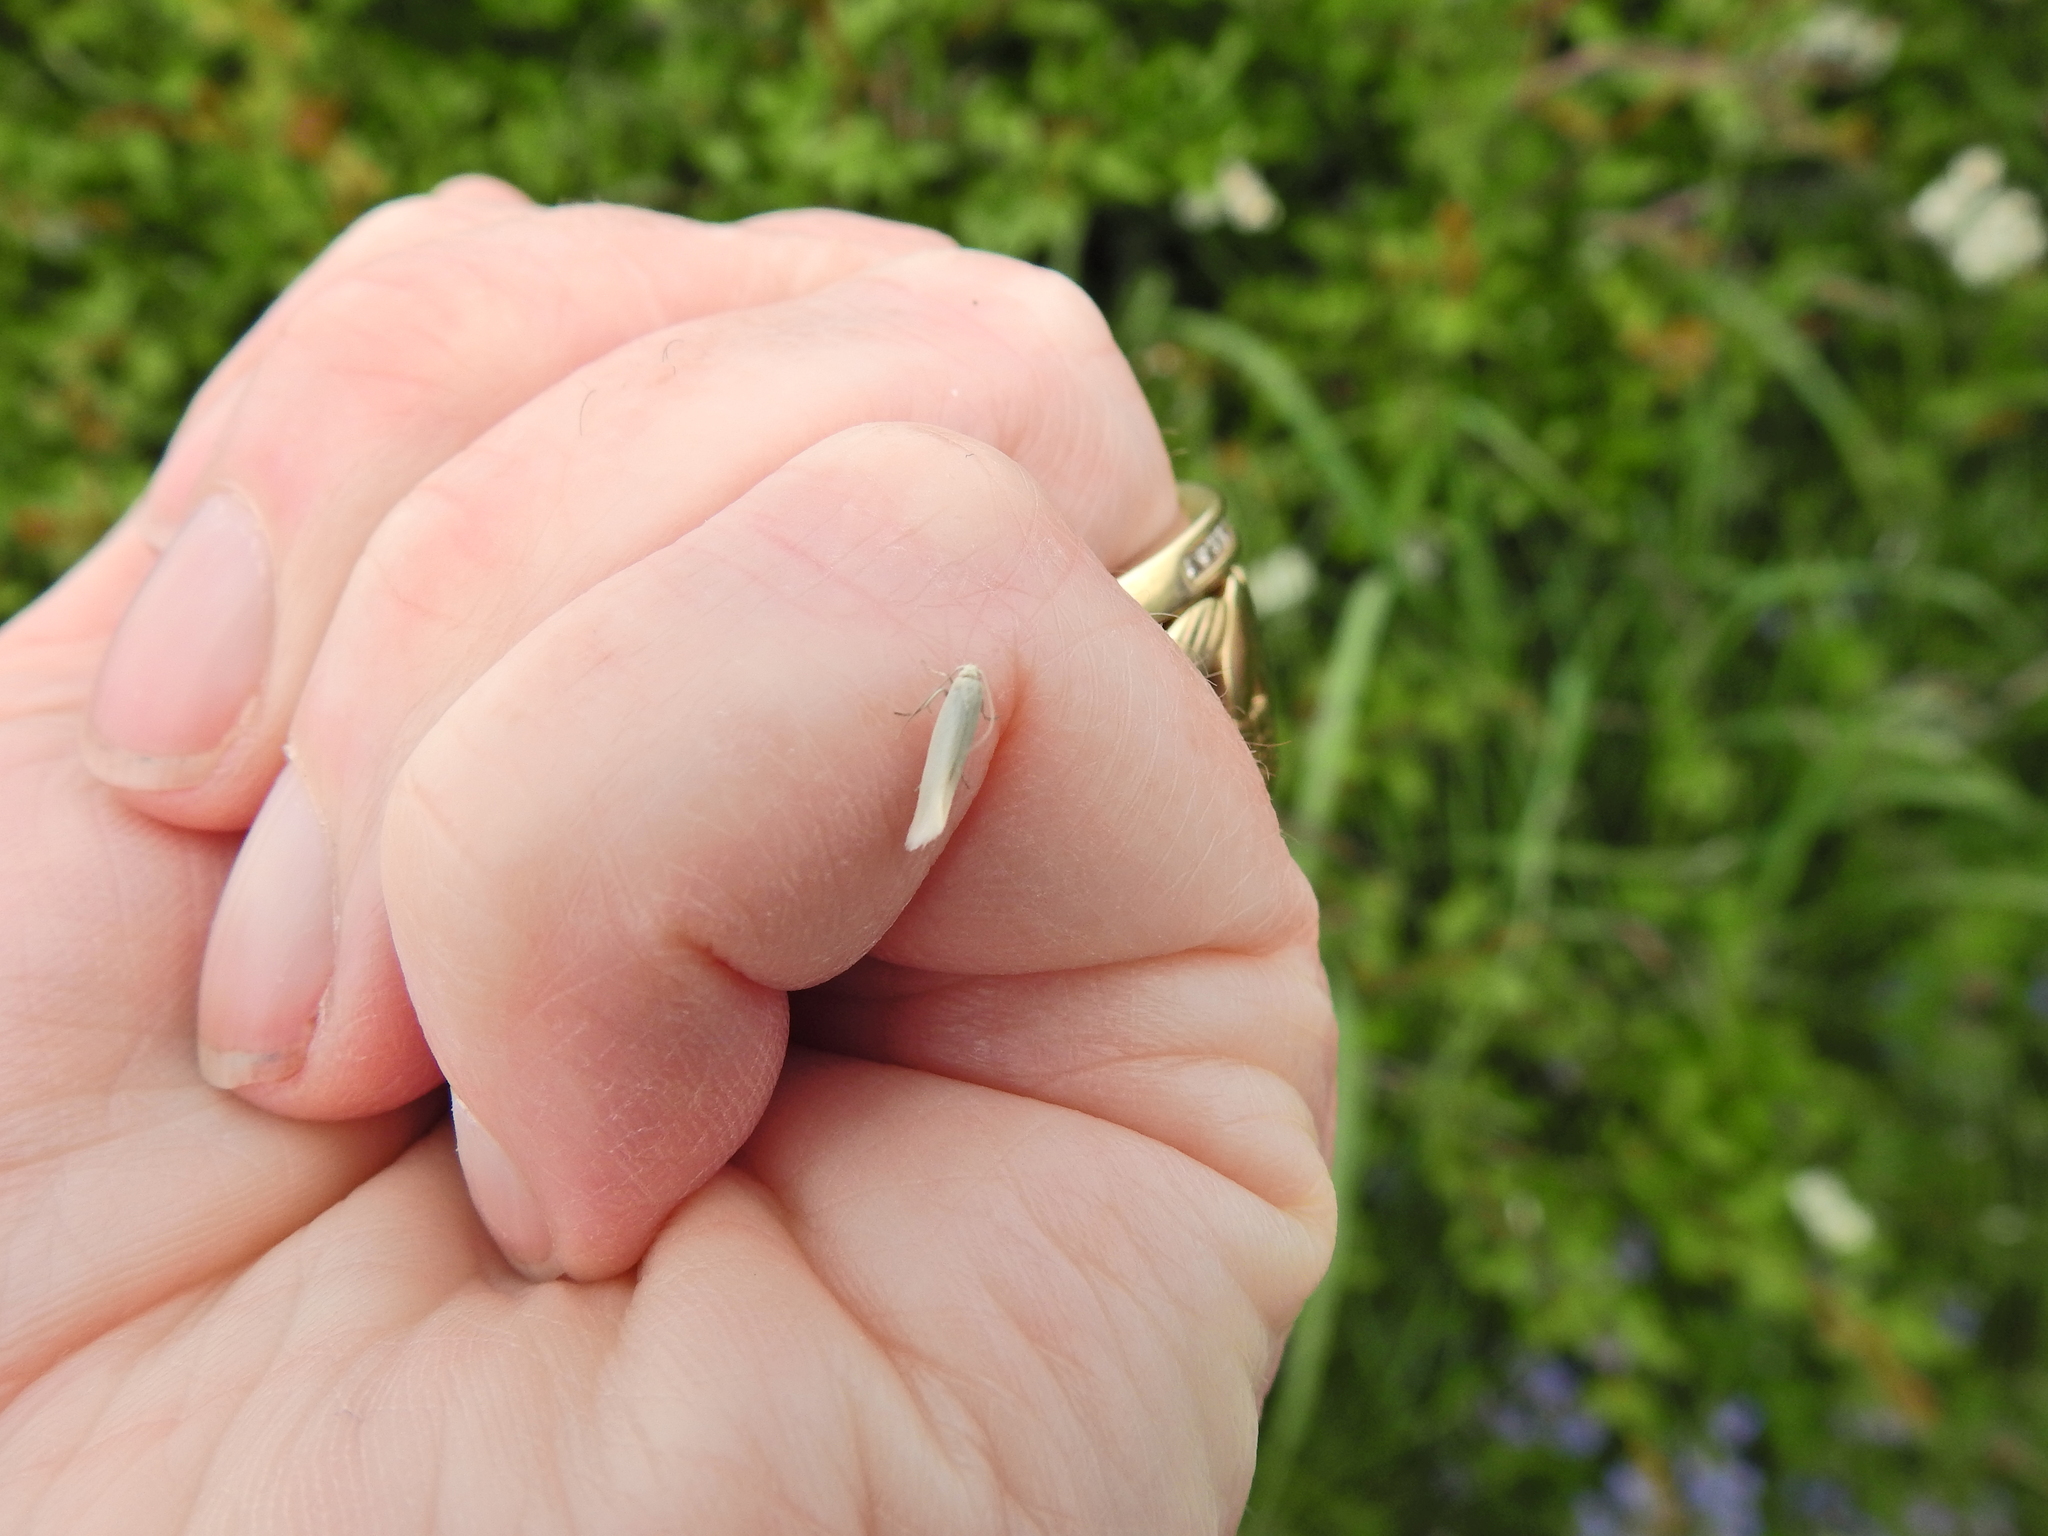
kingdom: Animalia
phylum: Arthropoda
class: Insecta
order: Lepidoptera
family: Elachistidae
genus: Elachista
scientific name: Elachista argentella
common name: Swan-feather dwarf
